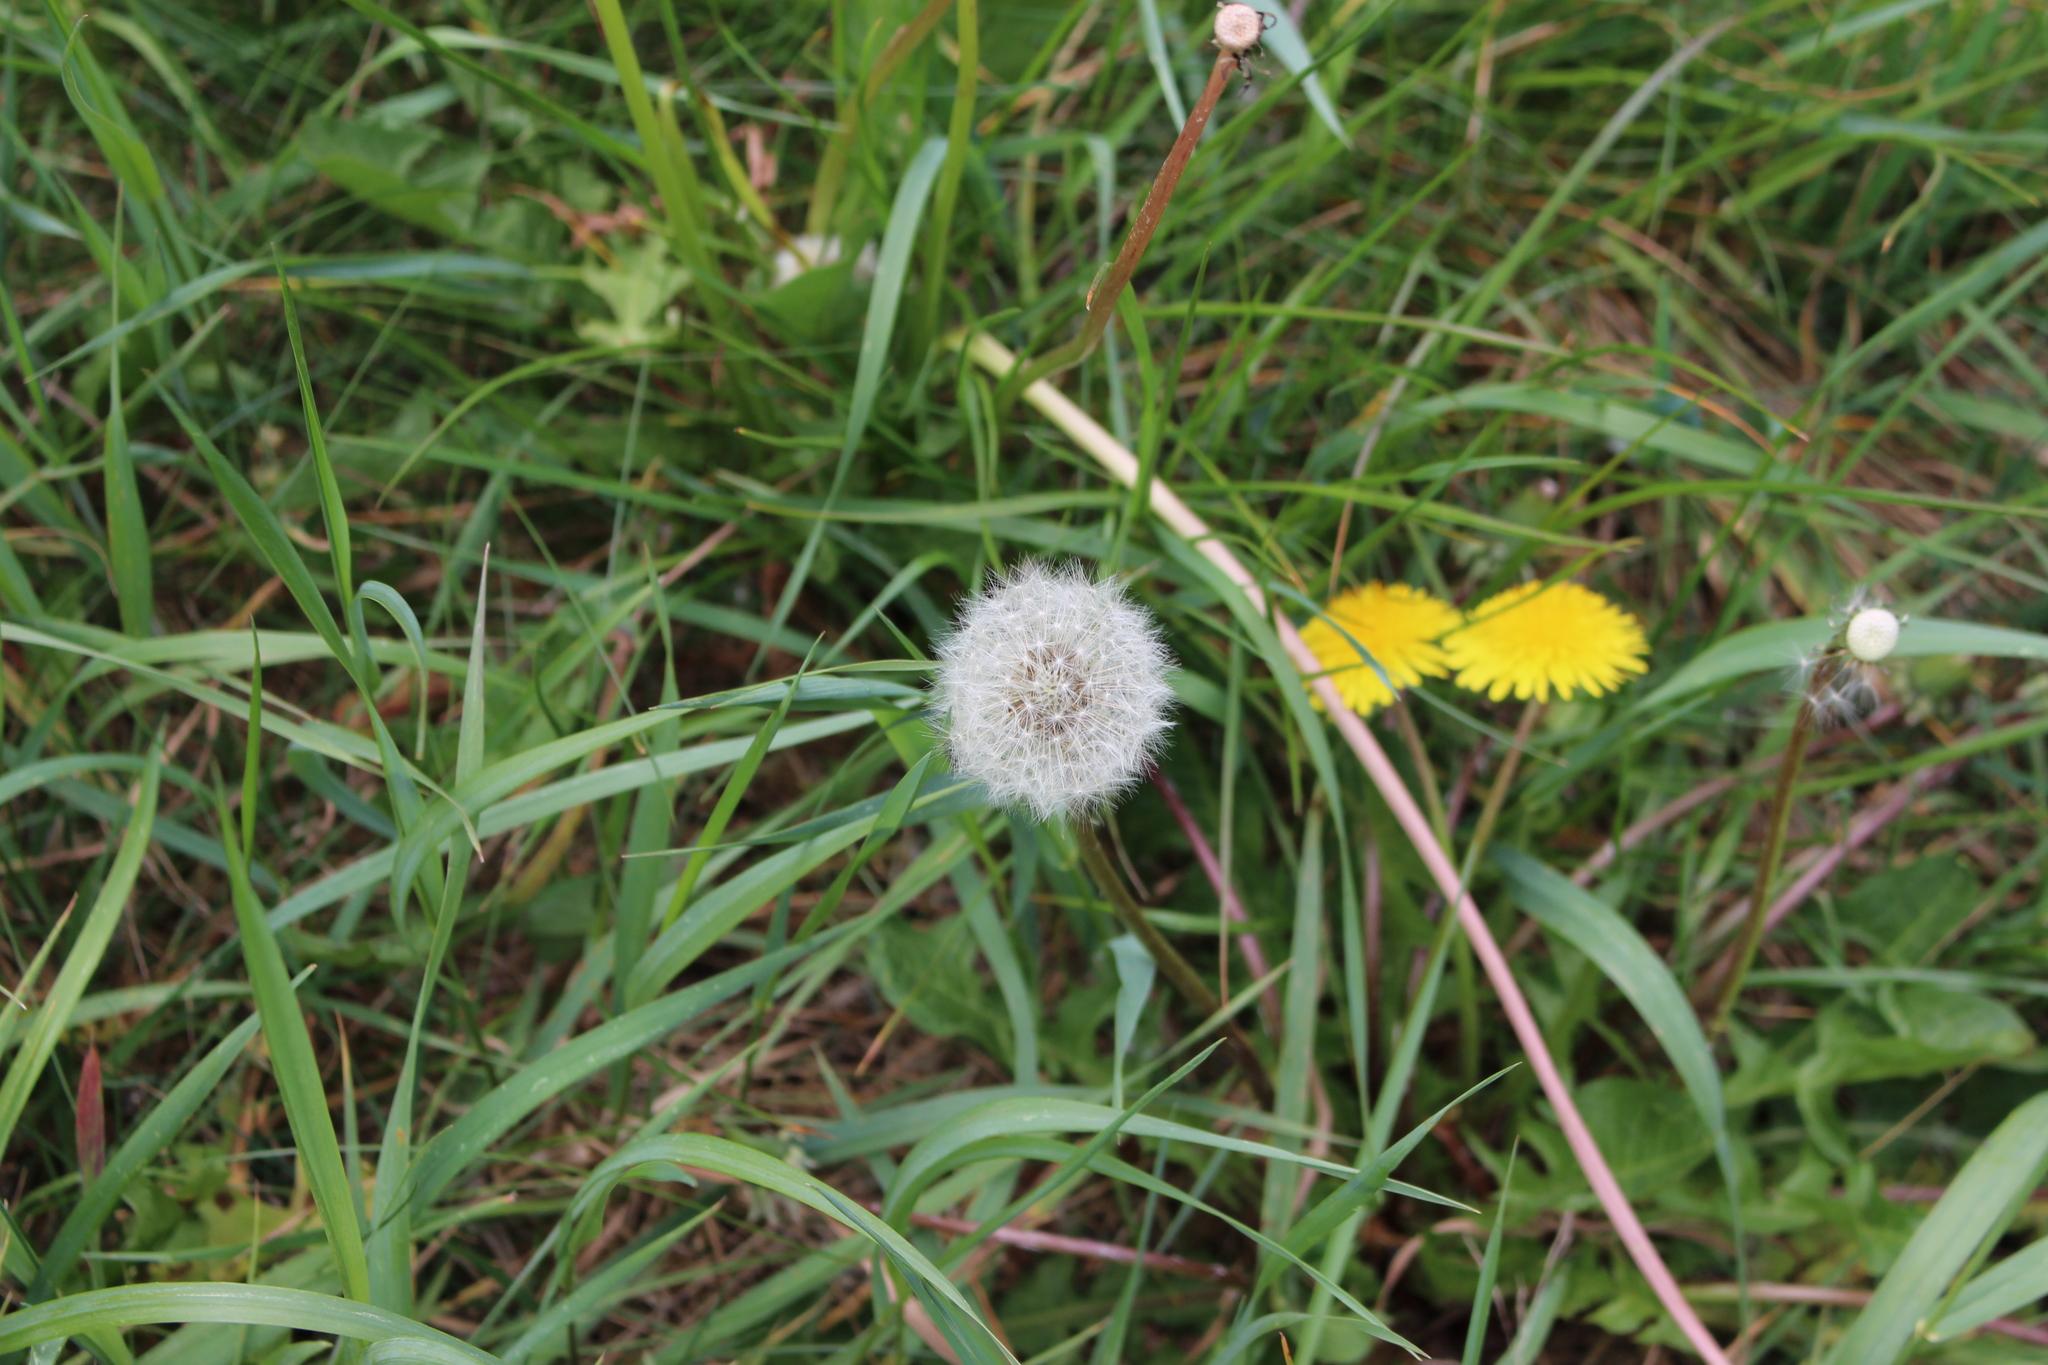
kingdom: Plantae
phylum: Tracheophyta
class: Magnoliopsida
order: Asterales
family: Asteraceae
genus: Taraxacum
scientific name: Taraxacum officinale
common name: Common dandelion
